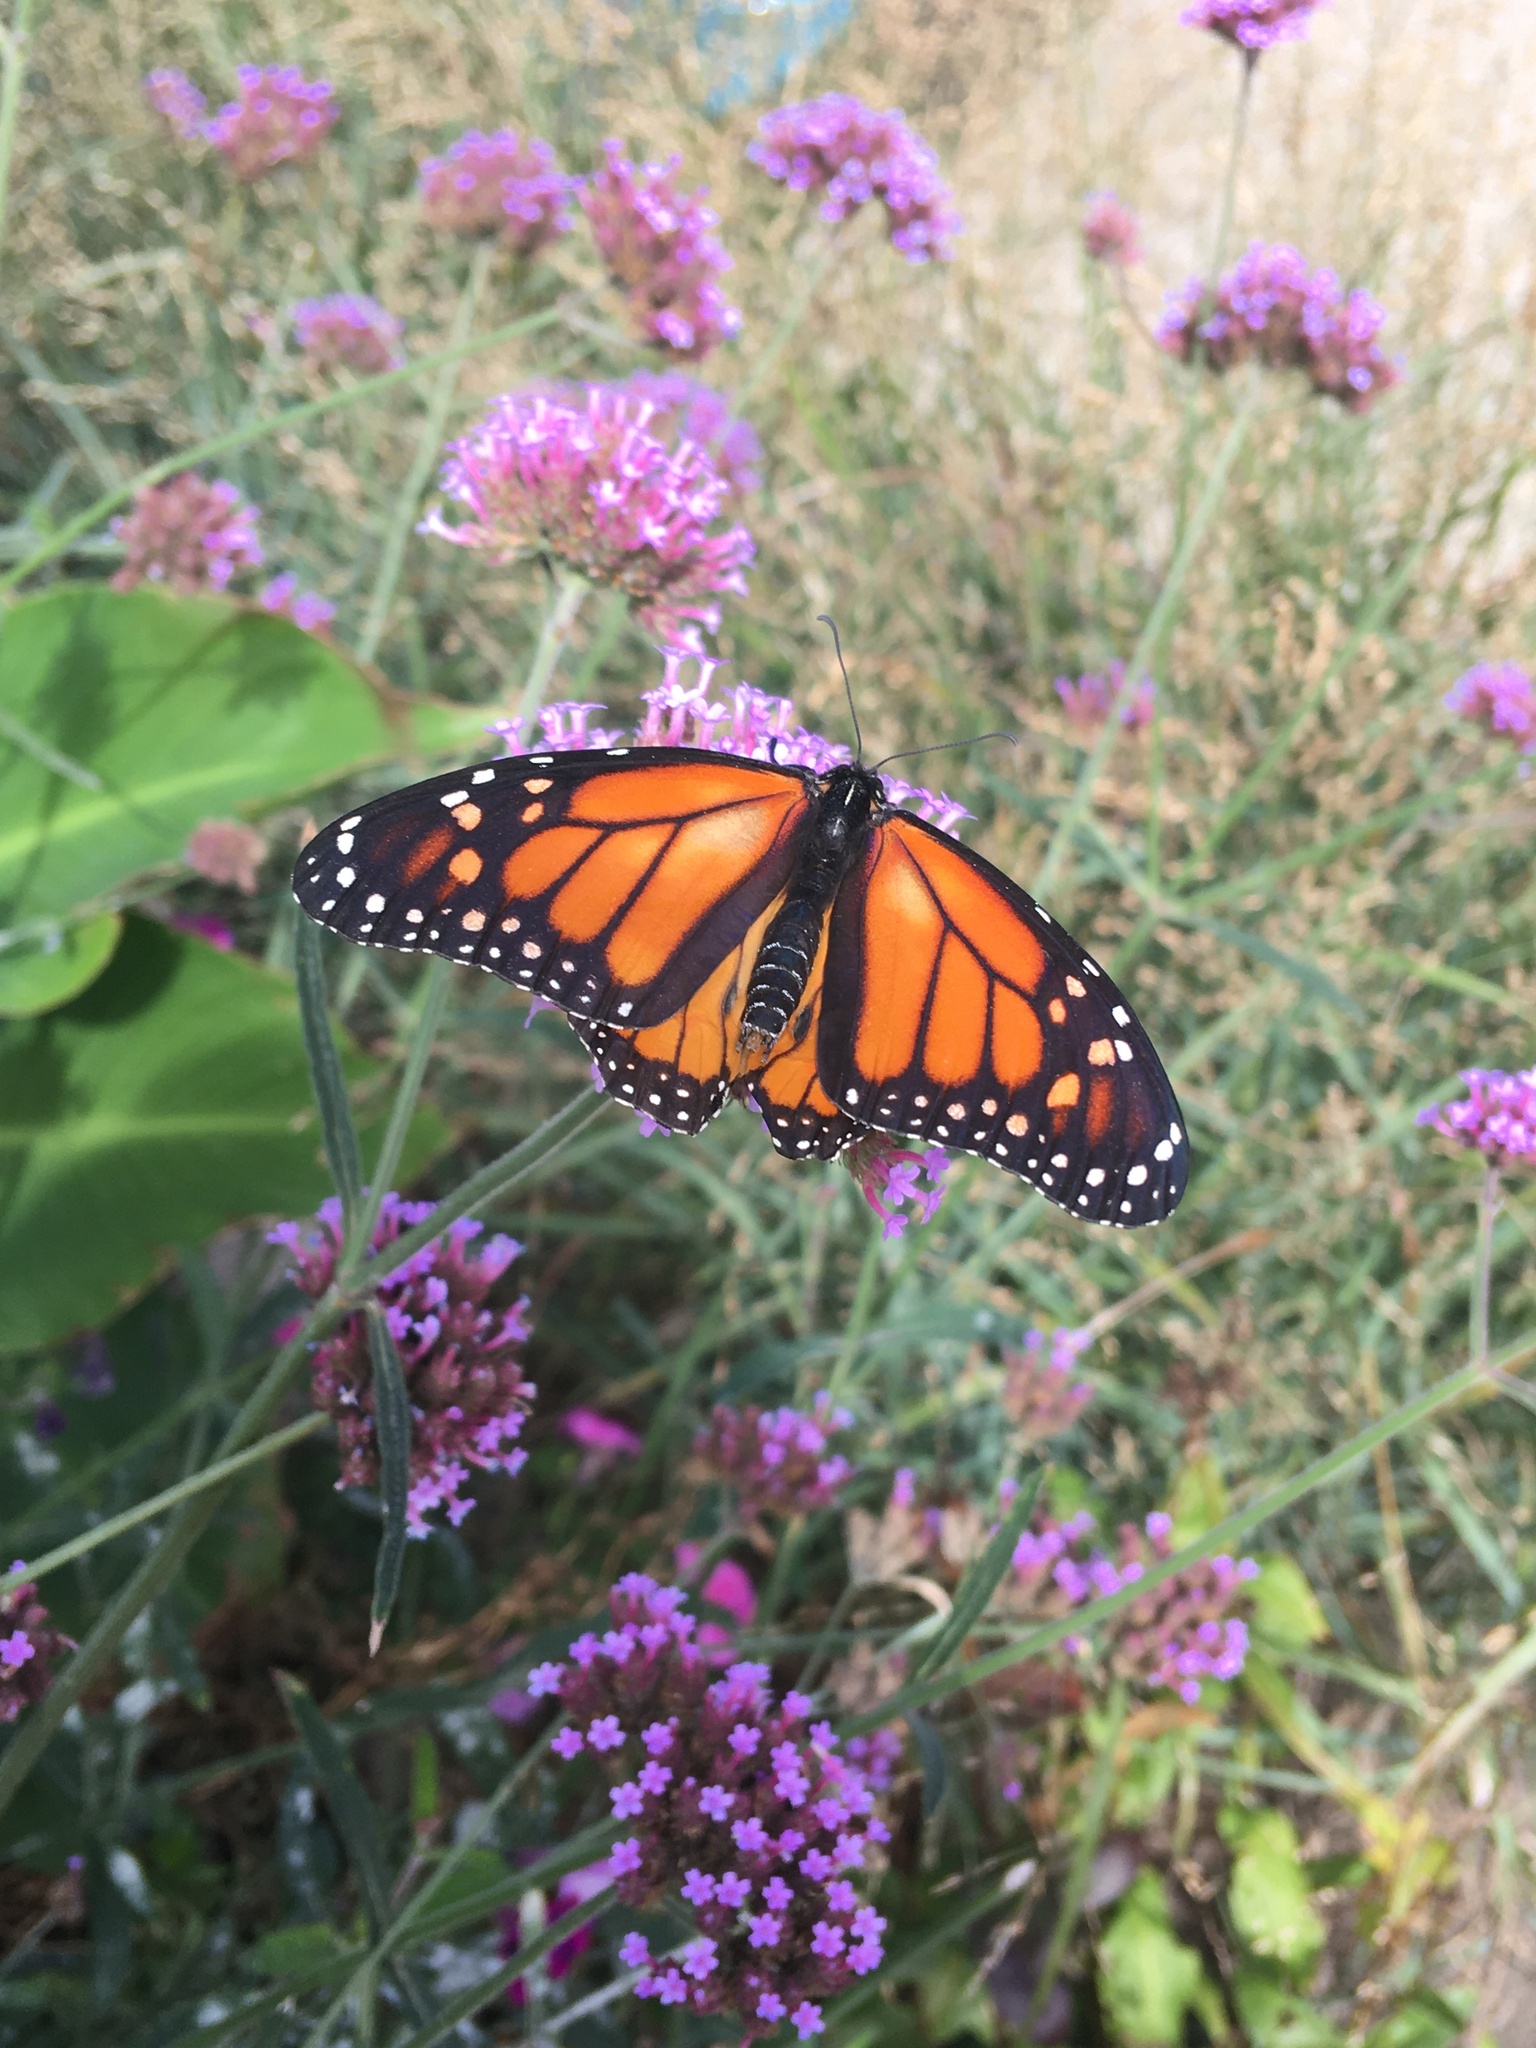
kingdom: Animalia
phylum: Arthropoda
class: Insecta
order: Lepidoptera
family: Nymphalidae
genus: Danaus
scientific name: Danaus plexippus
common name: Monarch
